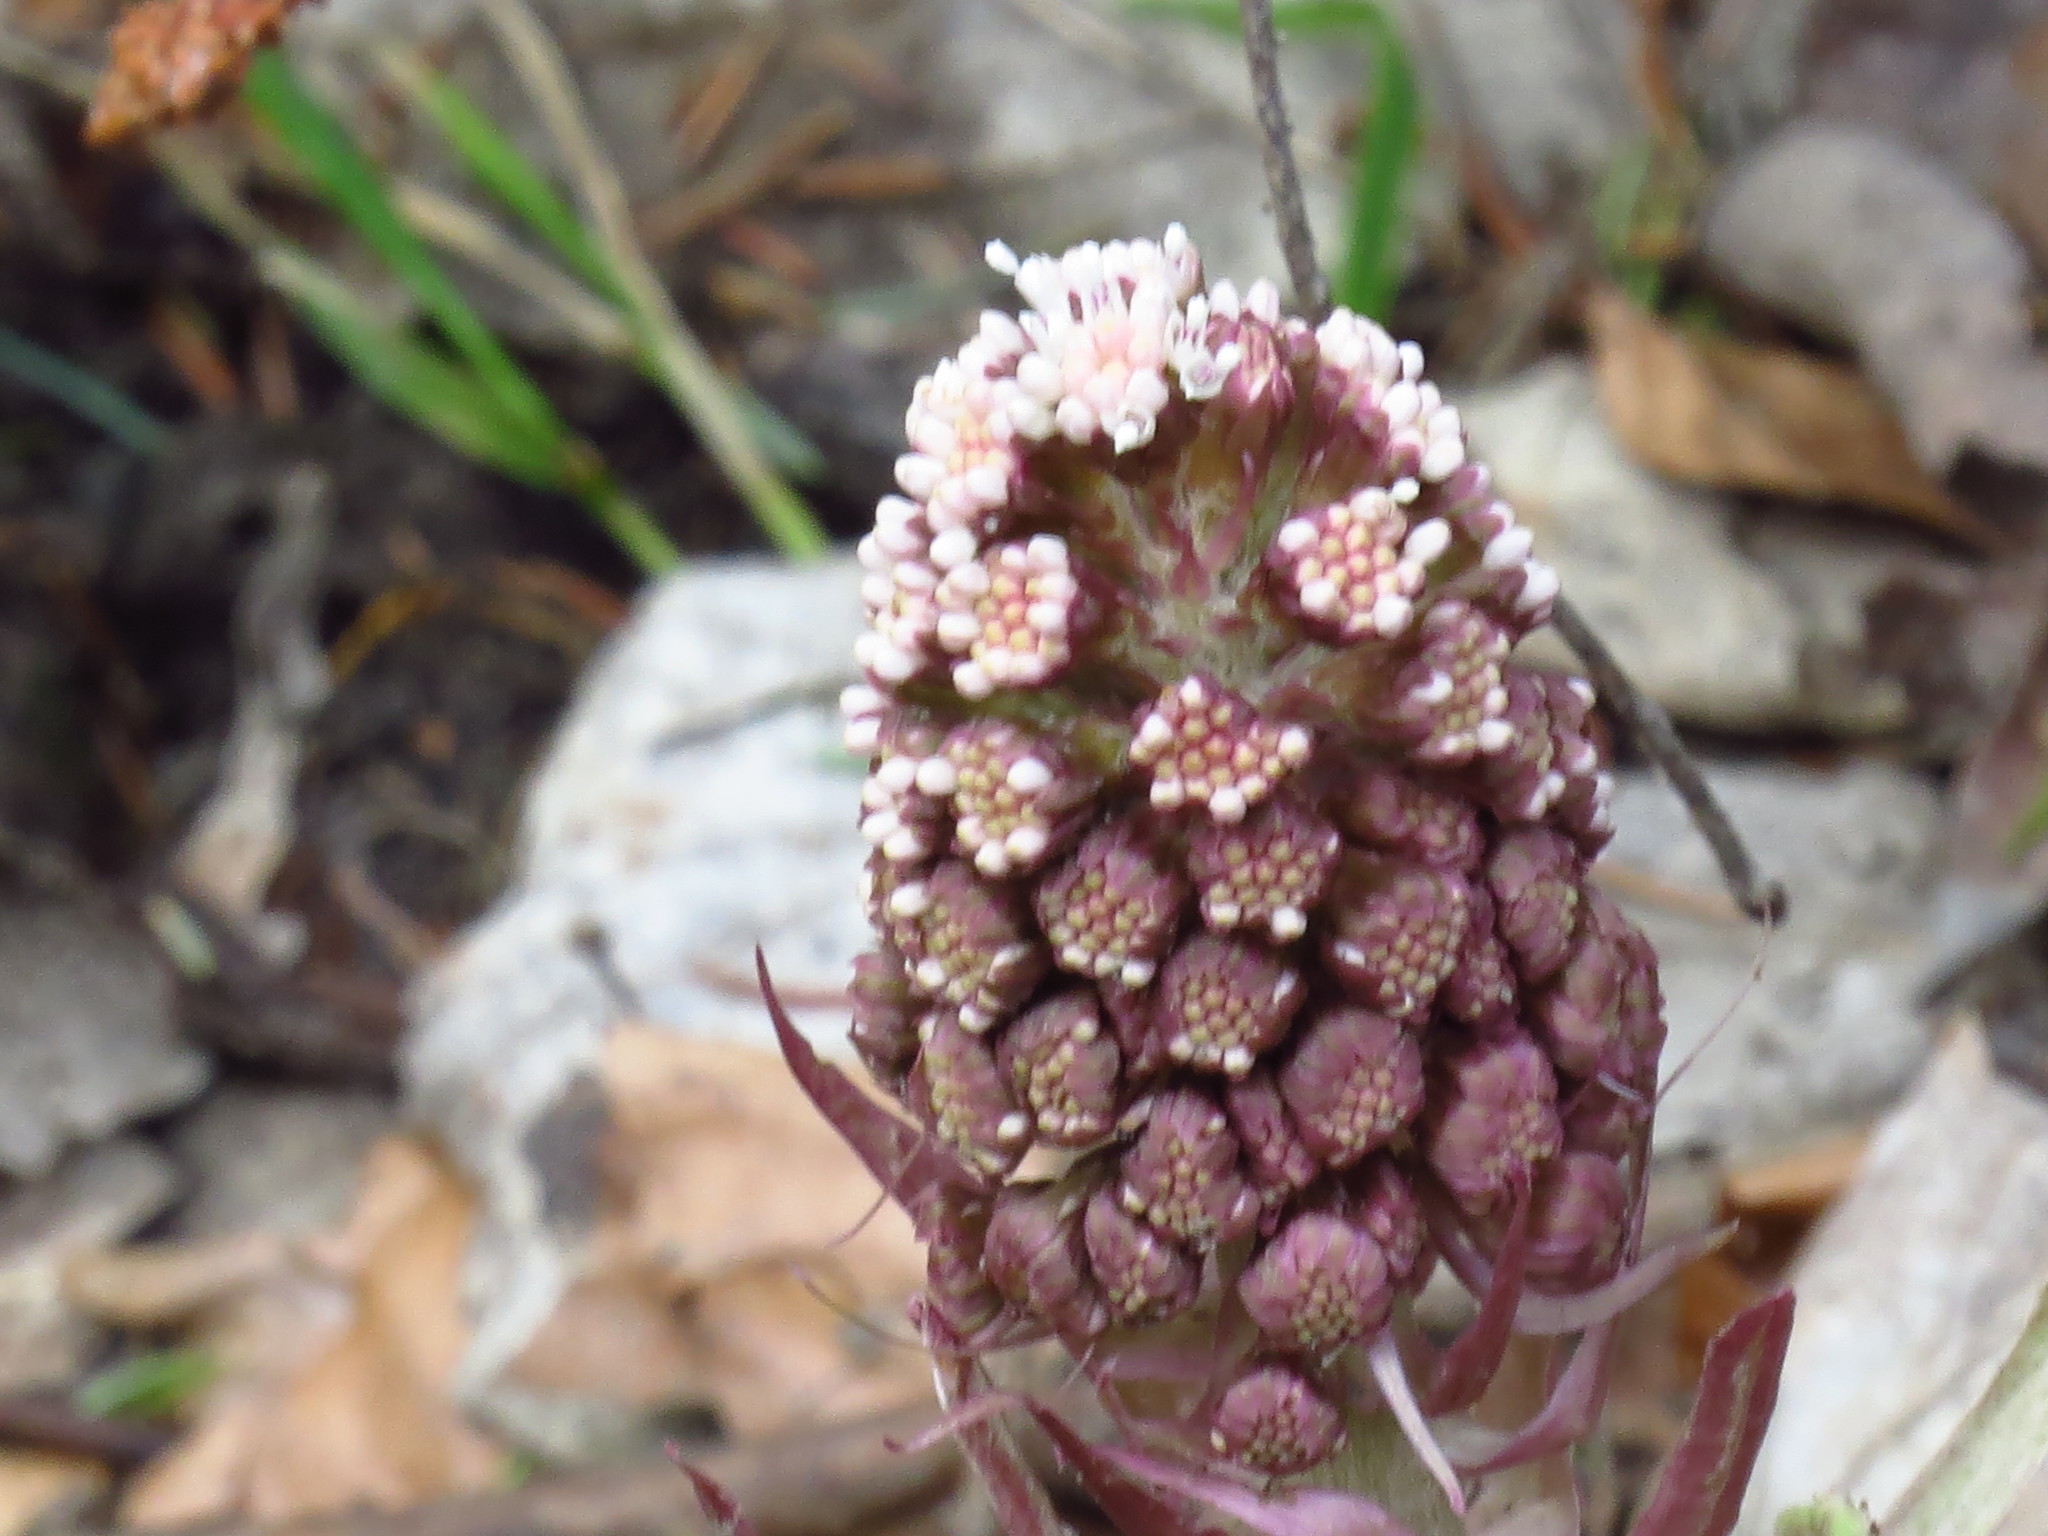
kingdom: Plantae
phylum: Tracheophyta
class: Magnoliopsida
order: Asterales
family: Asteraceae
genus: Petasites
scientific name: Petasites hybridus
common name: Butterbur
